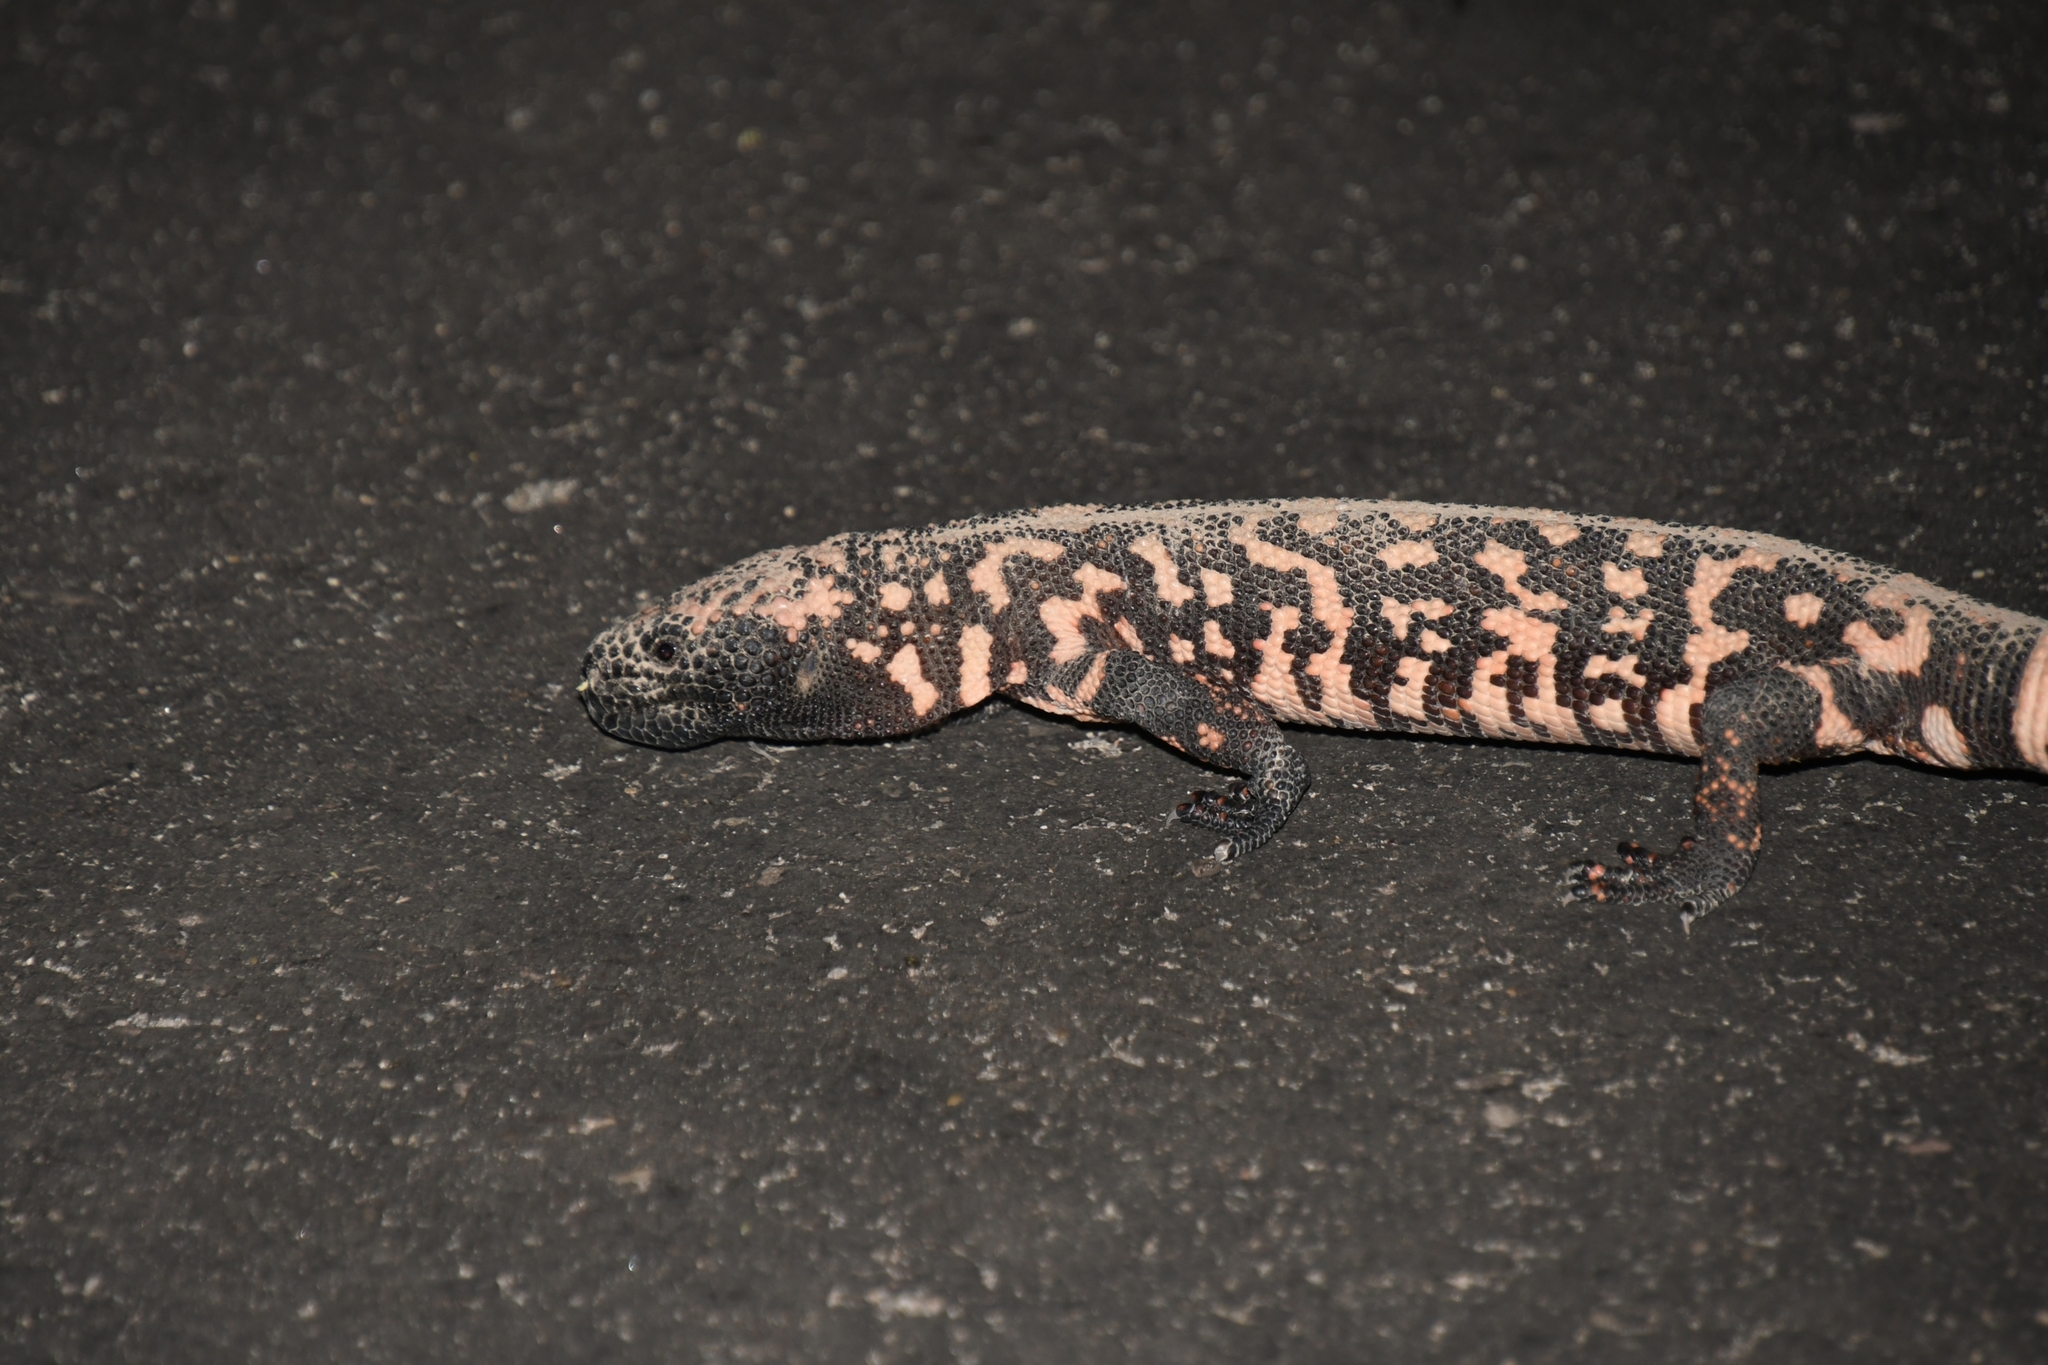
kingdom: Animalia
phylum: Chordata
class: Squamata
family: Helodermatidae
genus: Heloderma
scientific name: Heloderma suspectum
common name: Gila monster
